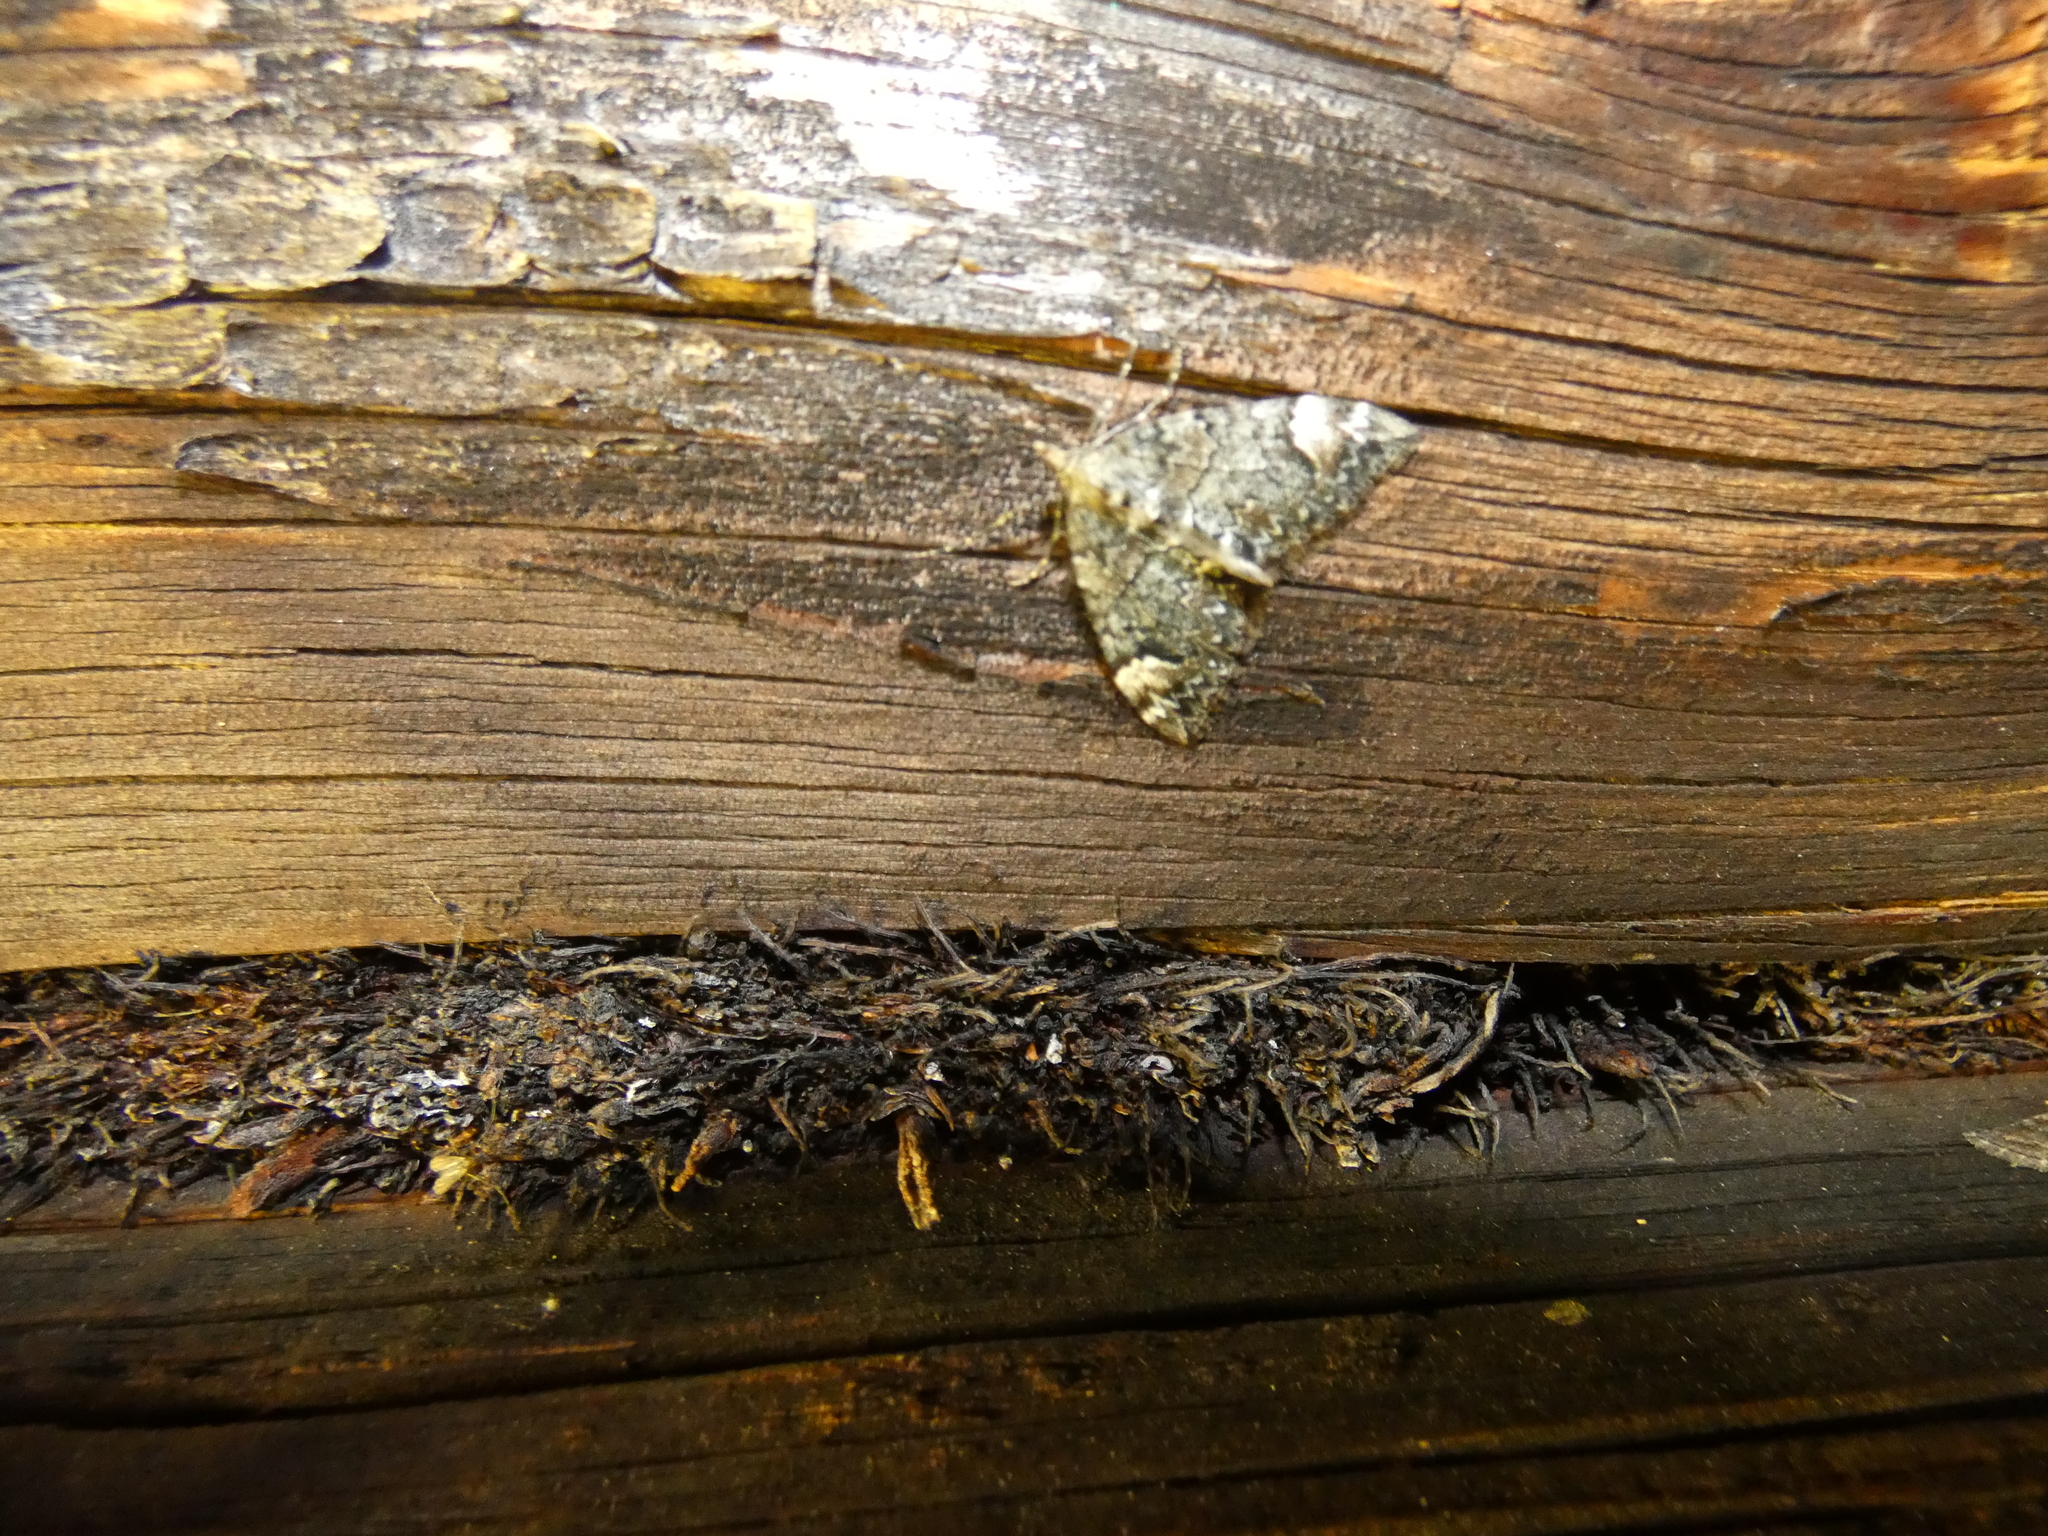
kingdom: Animalia
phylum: Arthropoda
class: Insecta
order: Lepidoptera
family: Geometridae
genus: Dysstroma
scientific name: Dysstroma citrata
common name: Dark marbled carpet
